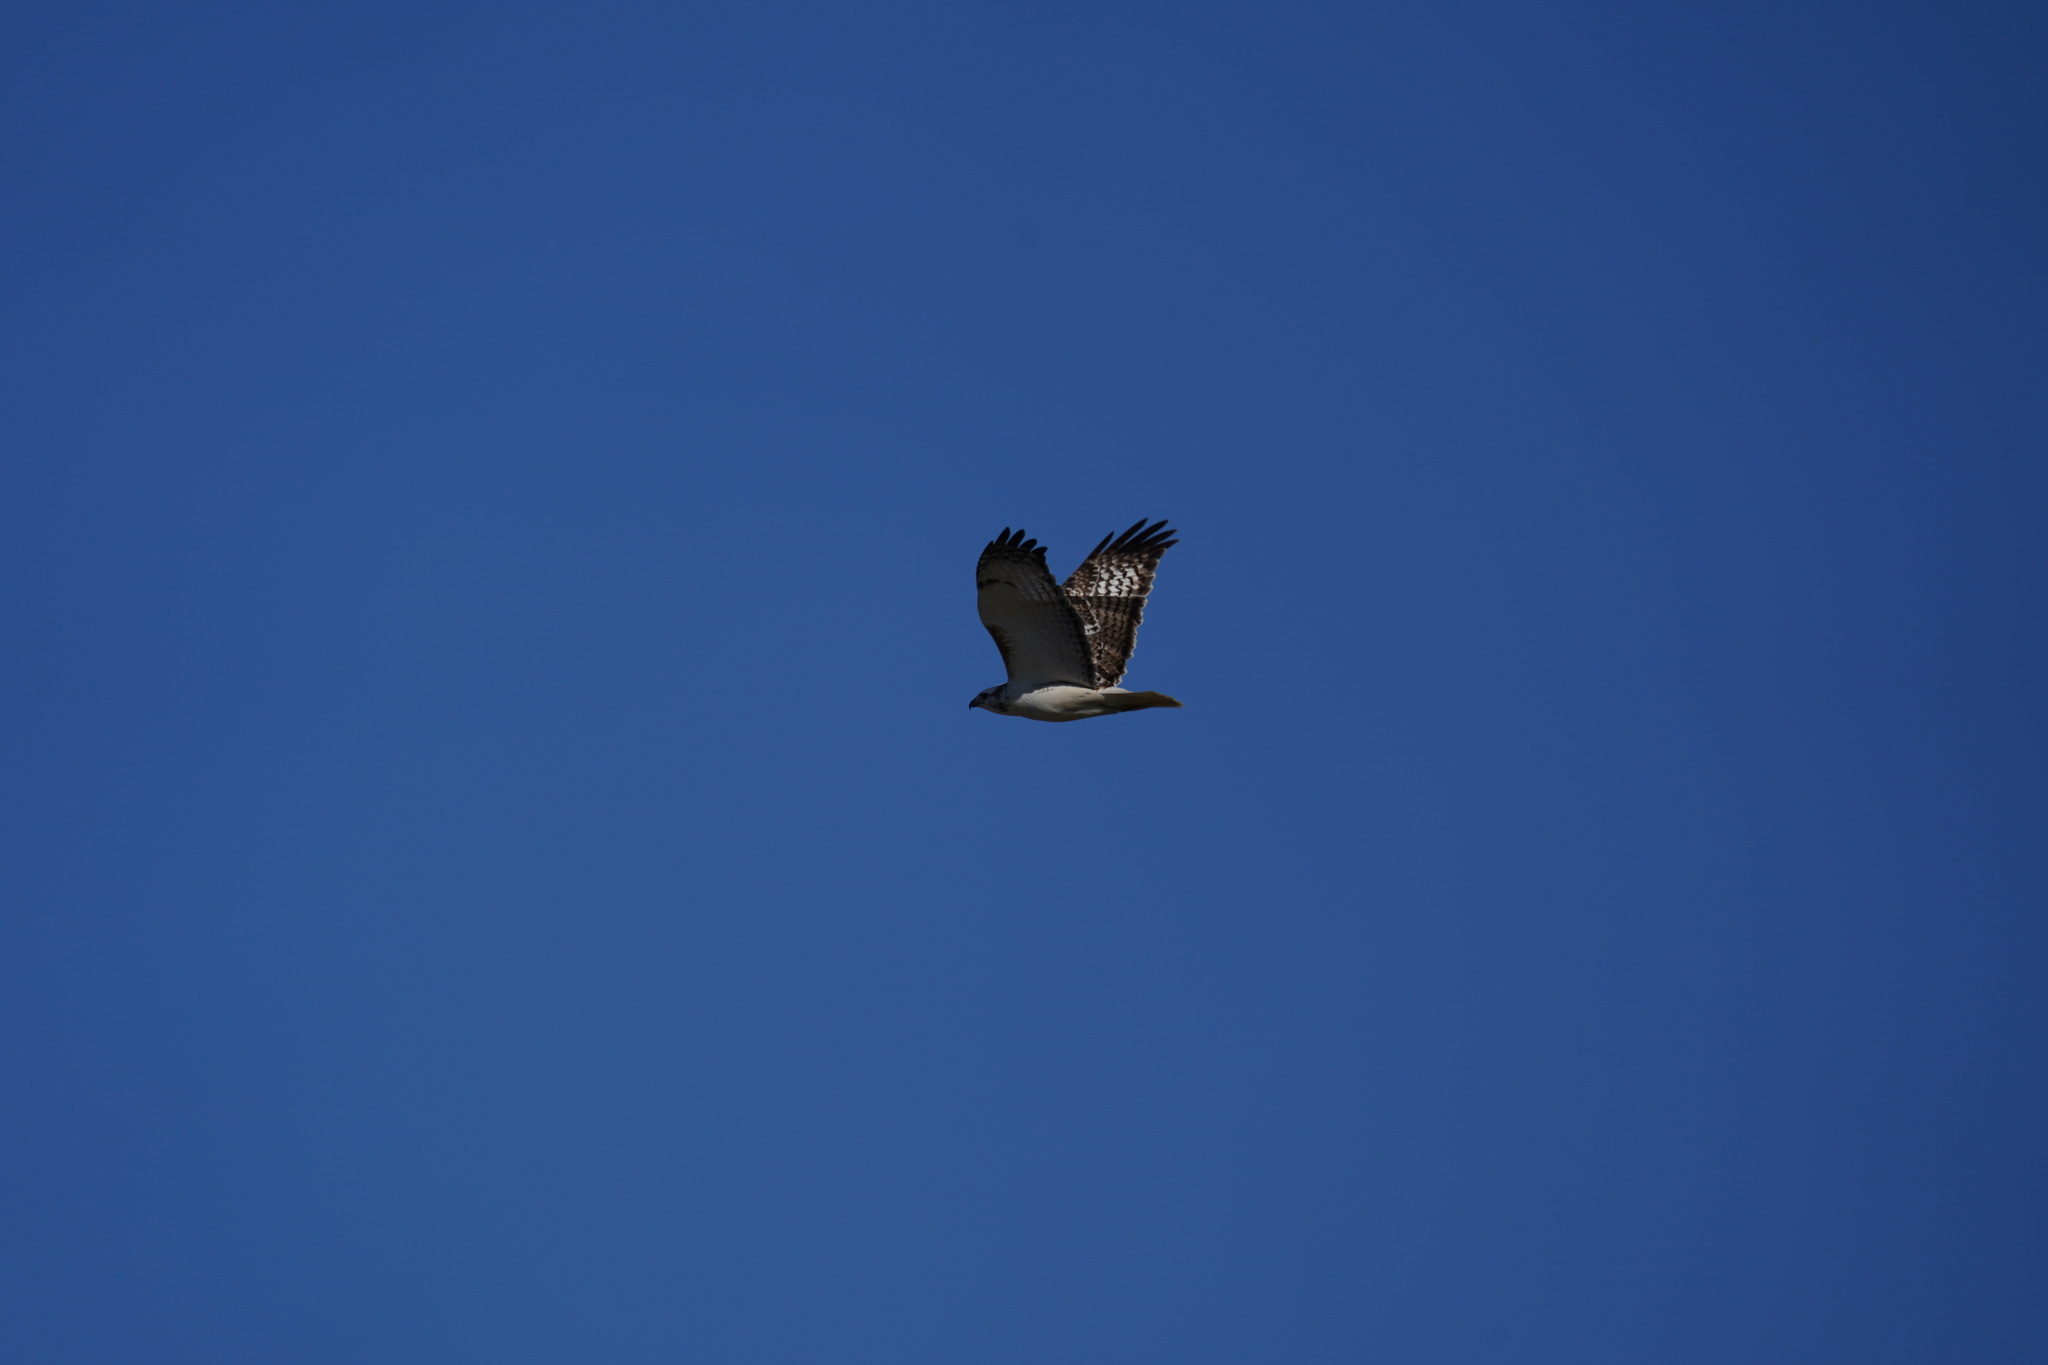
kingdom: Animalia
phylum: Chordata
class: Aves
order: Accipitriformes
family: Accipitridae
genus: Buteo
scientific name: Buteo jamaicensis
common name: Red-tailed hawk
